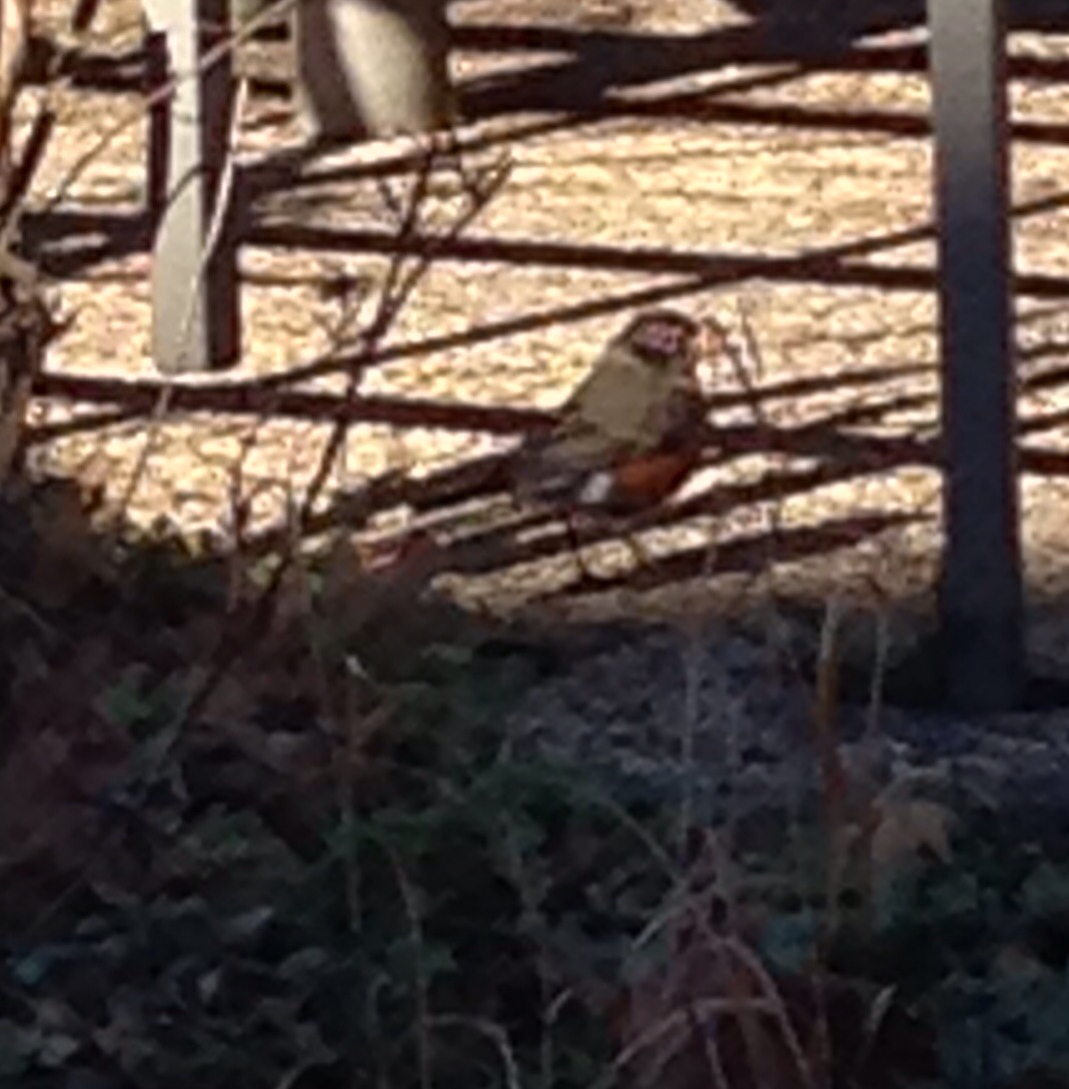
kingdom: Animalia
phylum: Chordata
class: Aves
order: Passeriformes
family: Turdidae
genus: Turdus
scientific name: Turdus migratorius
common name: American robin
